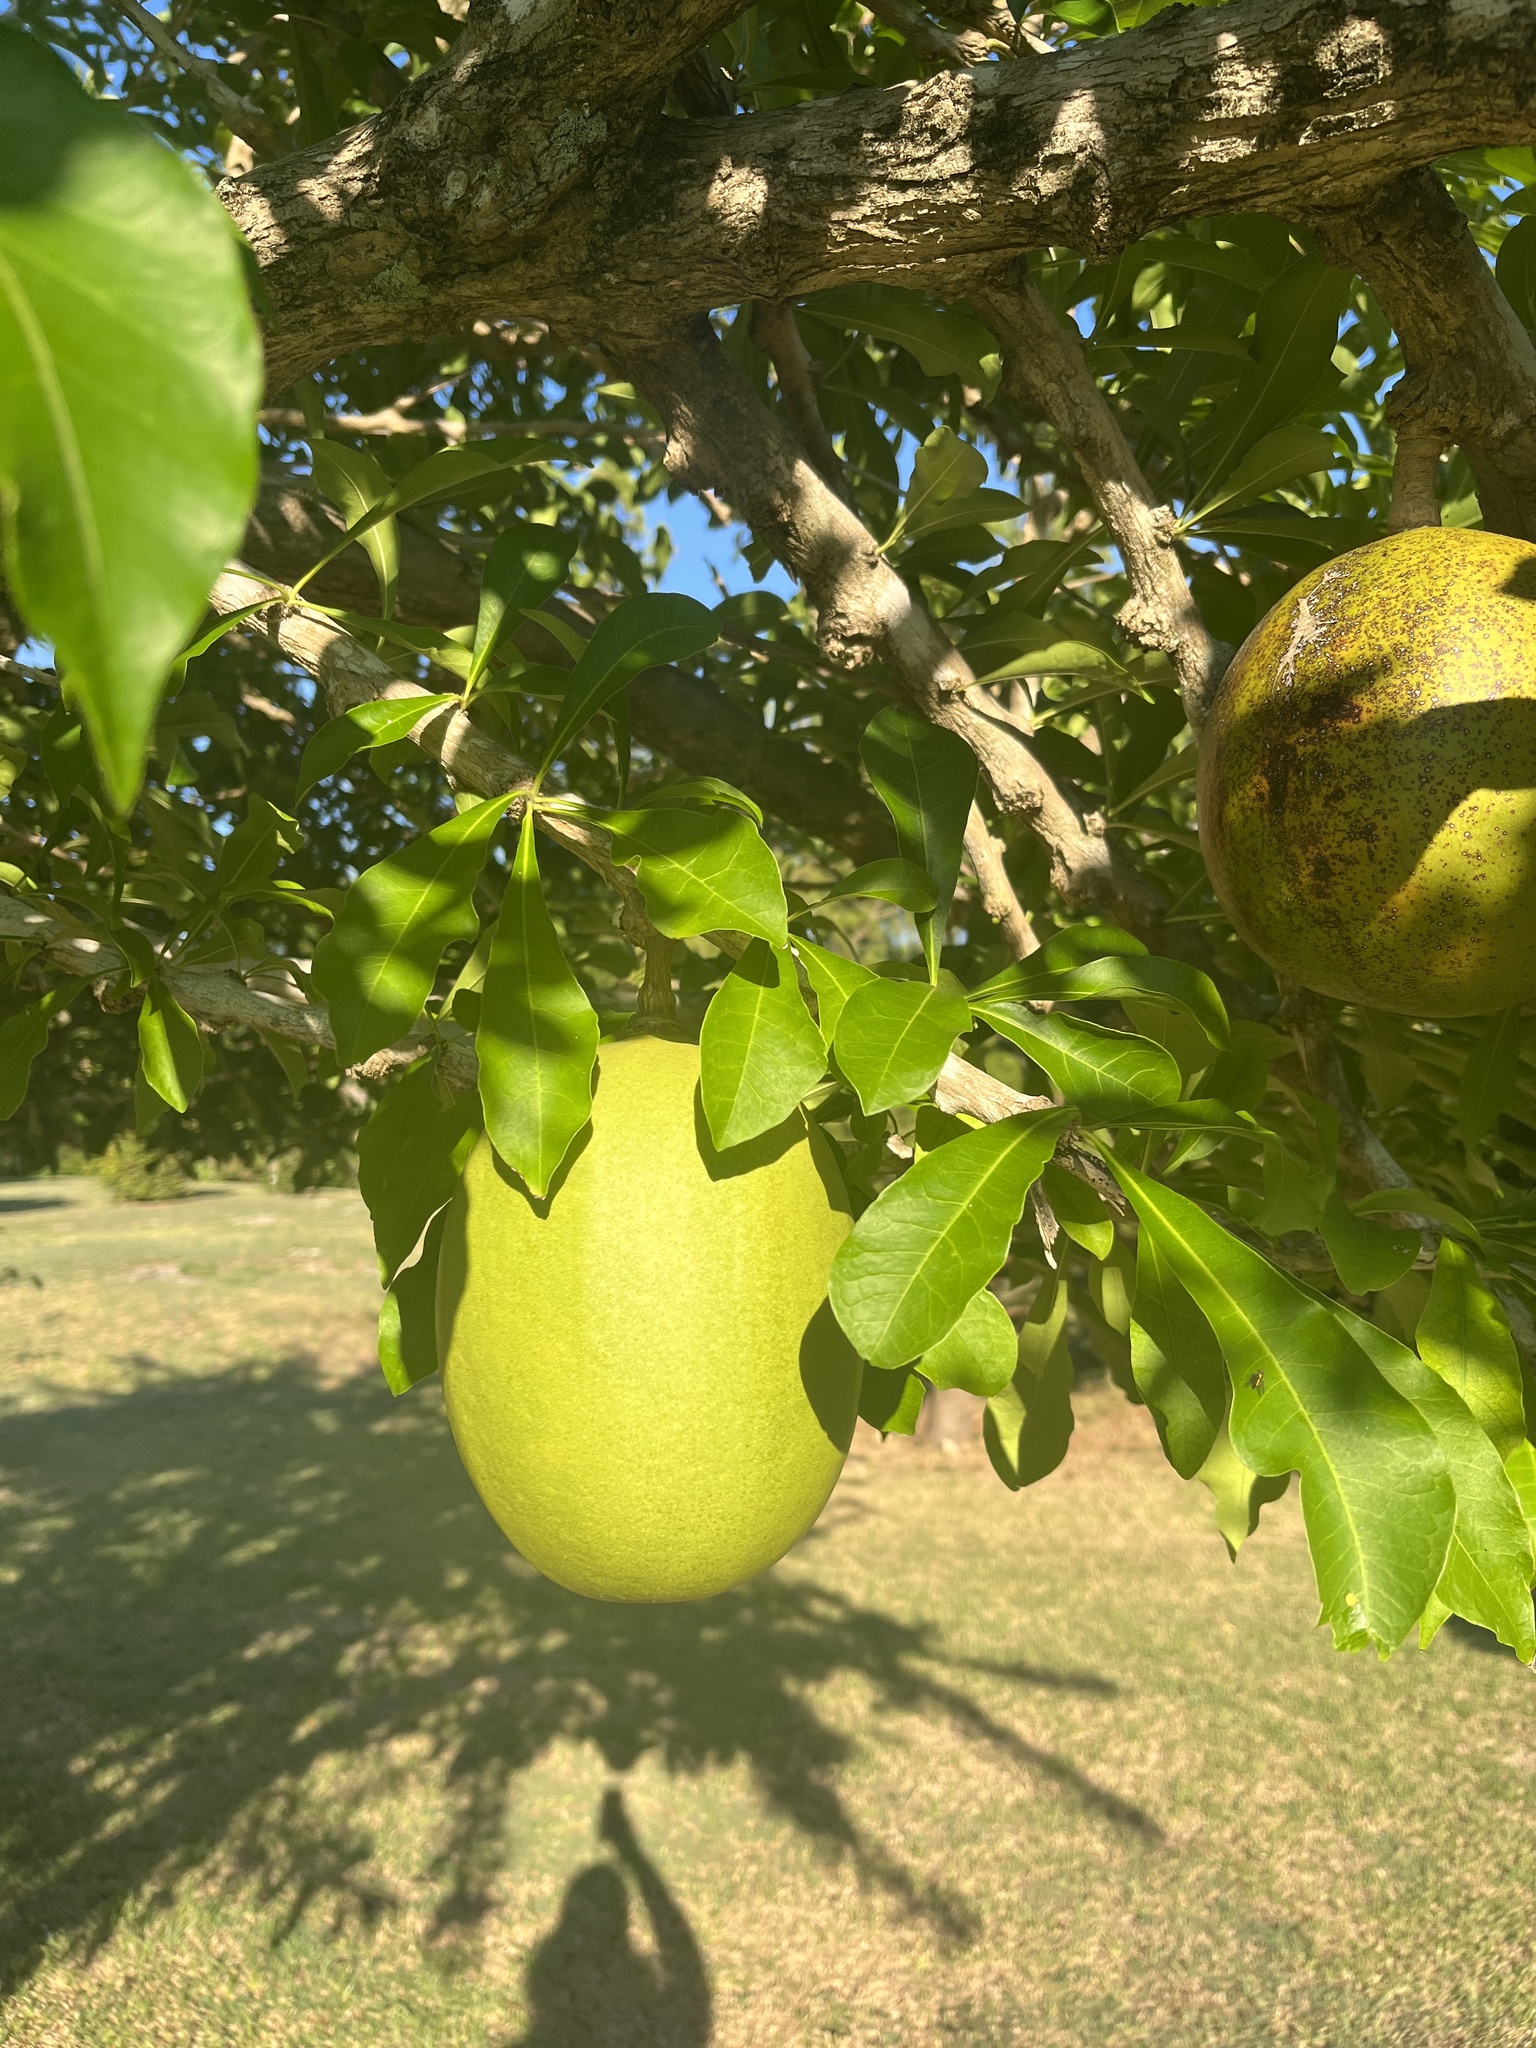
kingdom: Plantae
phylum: Tracheophyta
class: Magnoliopsida
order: Lamiales
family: Bignoniaceae
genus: Crescentia
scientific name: Crescentia cujete
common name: Calabash
